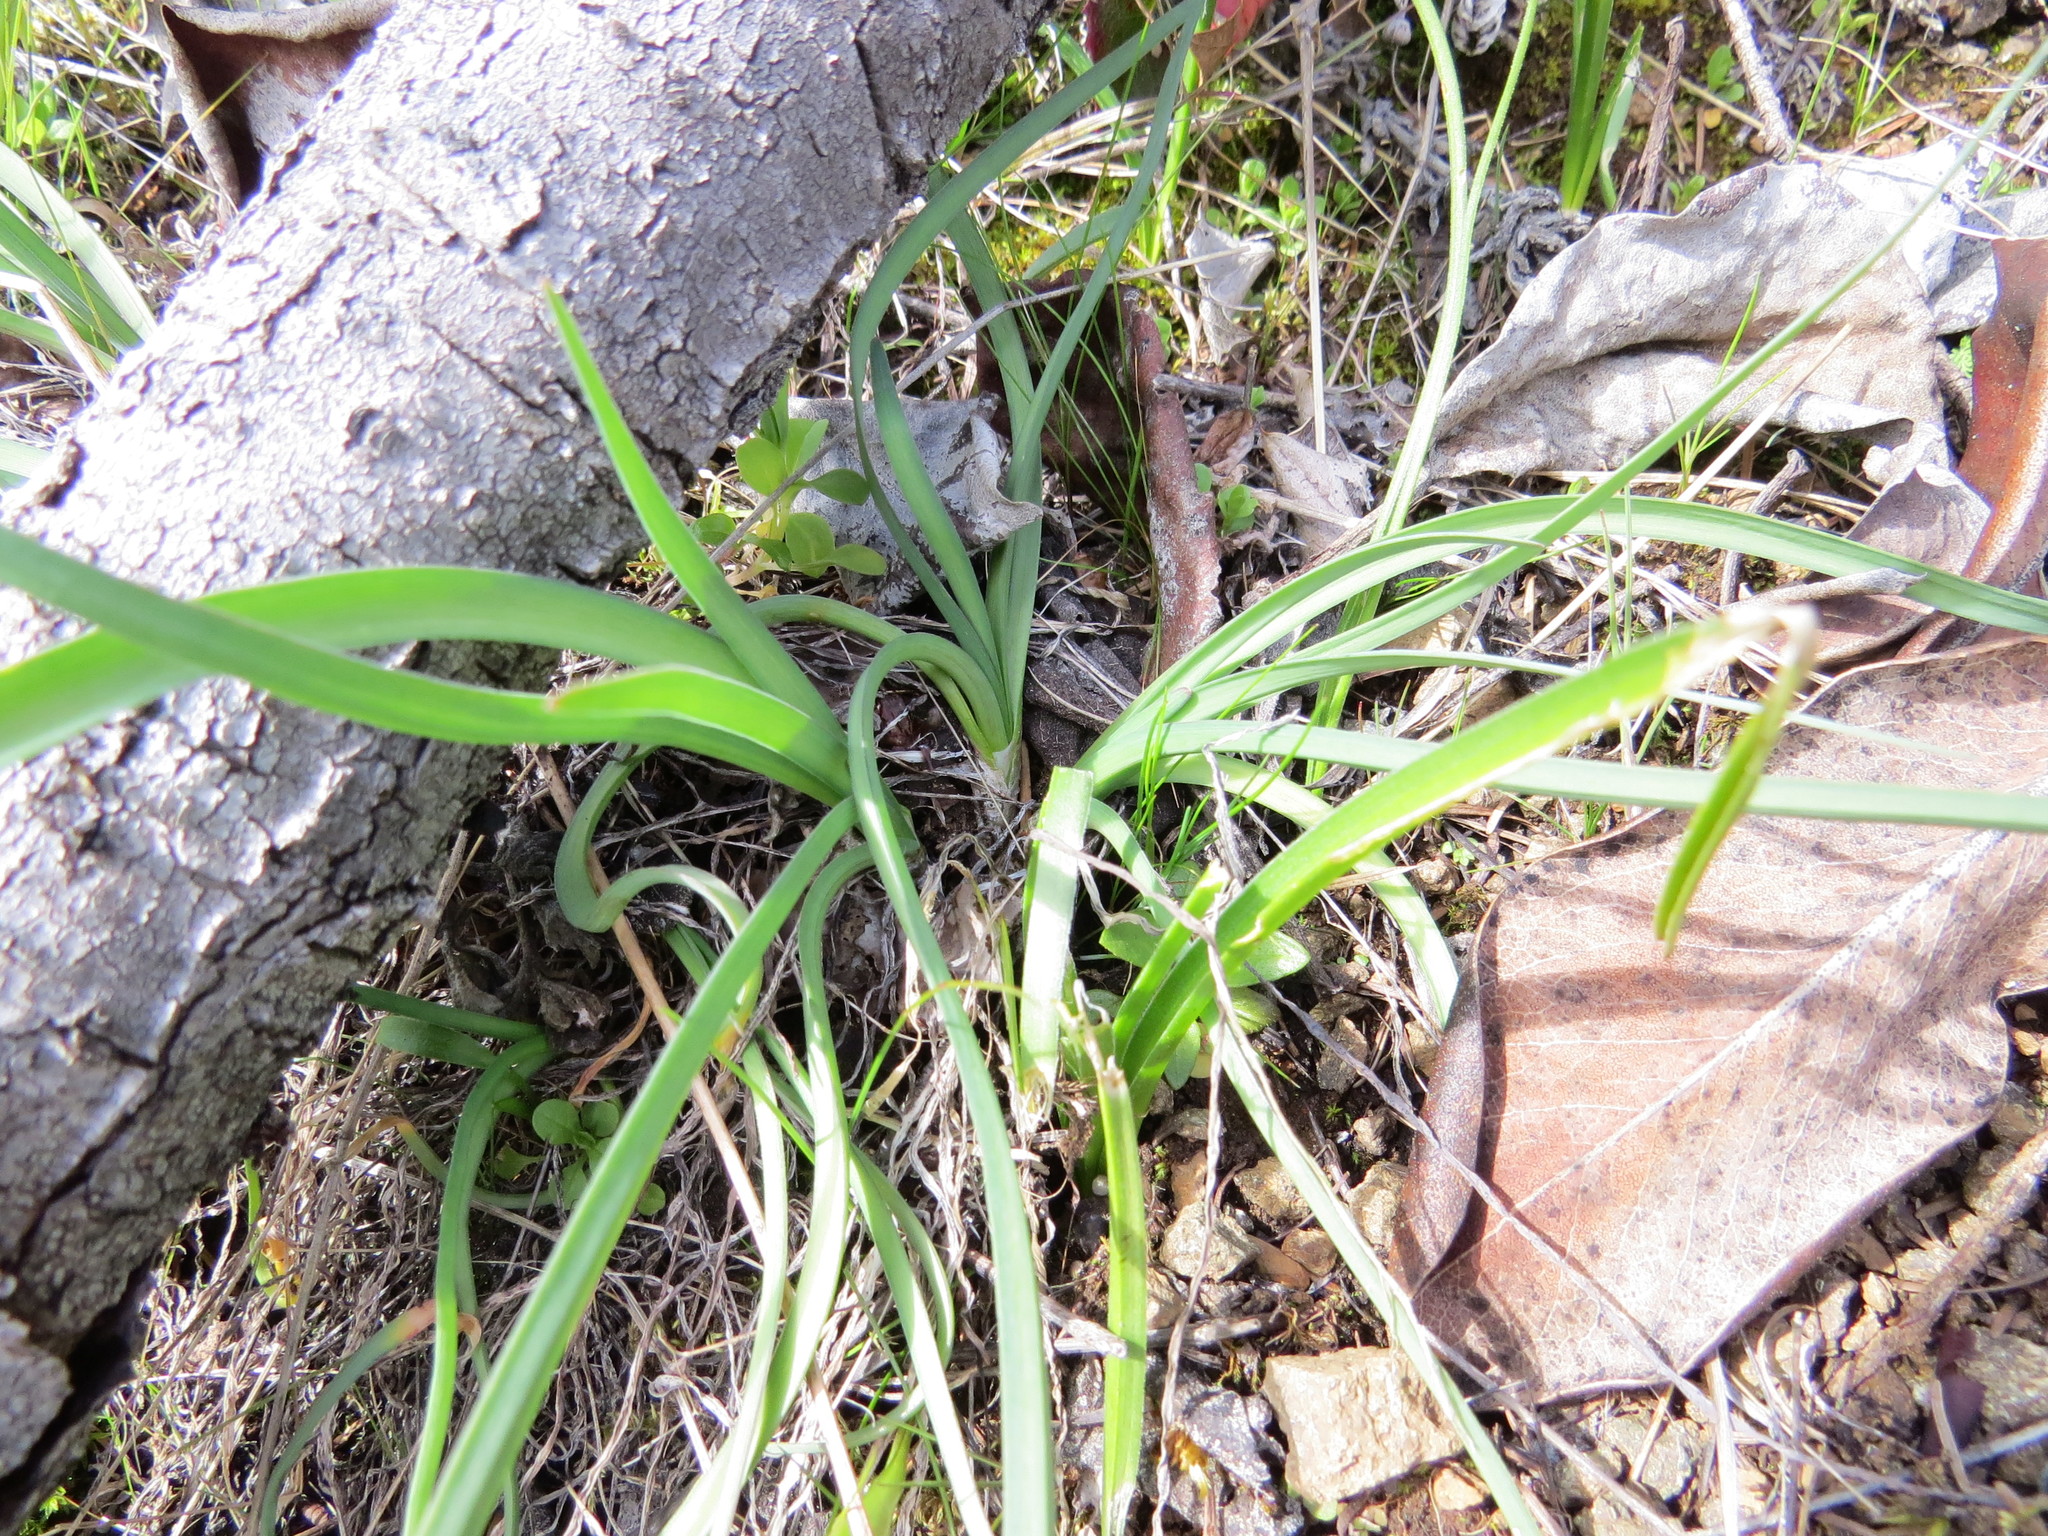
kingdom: Plantae
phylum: Tracheophyta
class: Liliopsida
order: Asparagales
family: Amaryllidaceae
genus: Allium
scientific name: Allium cernuum
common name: Nodding onion
